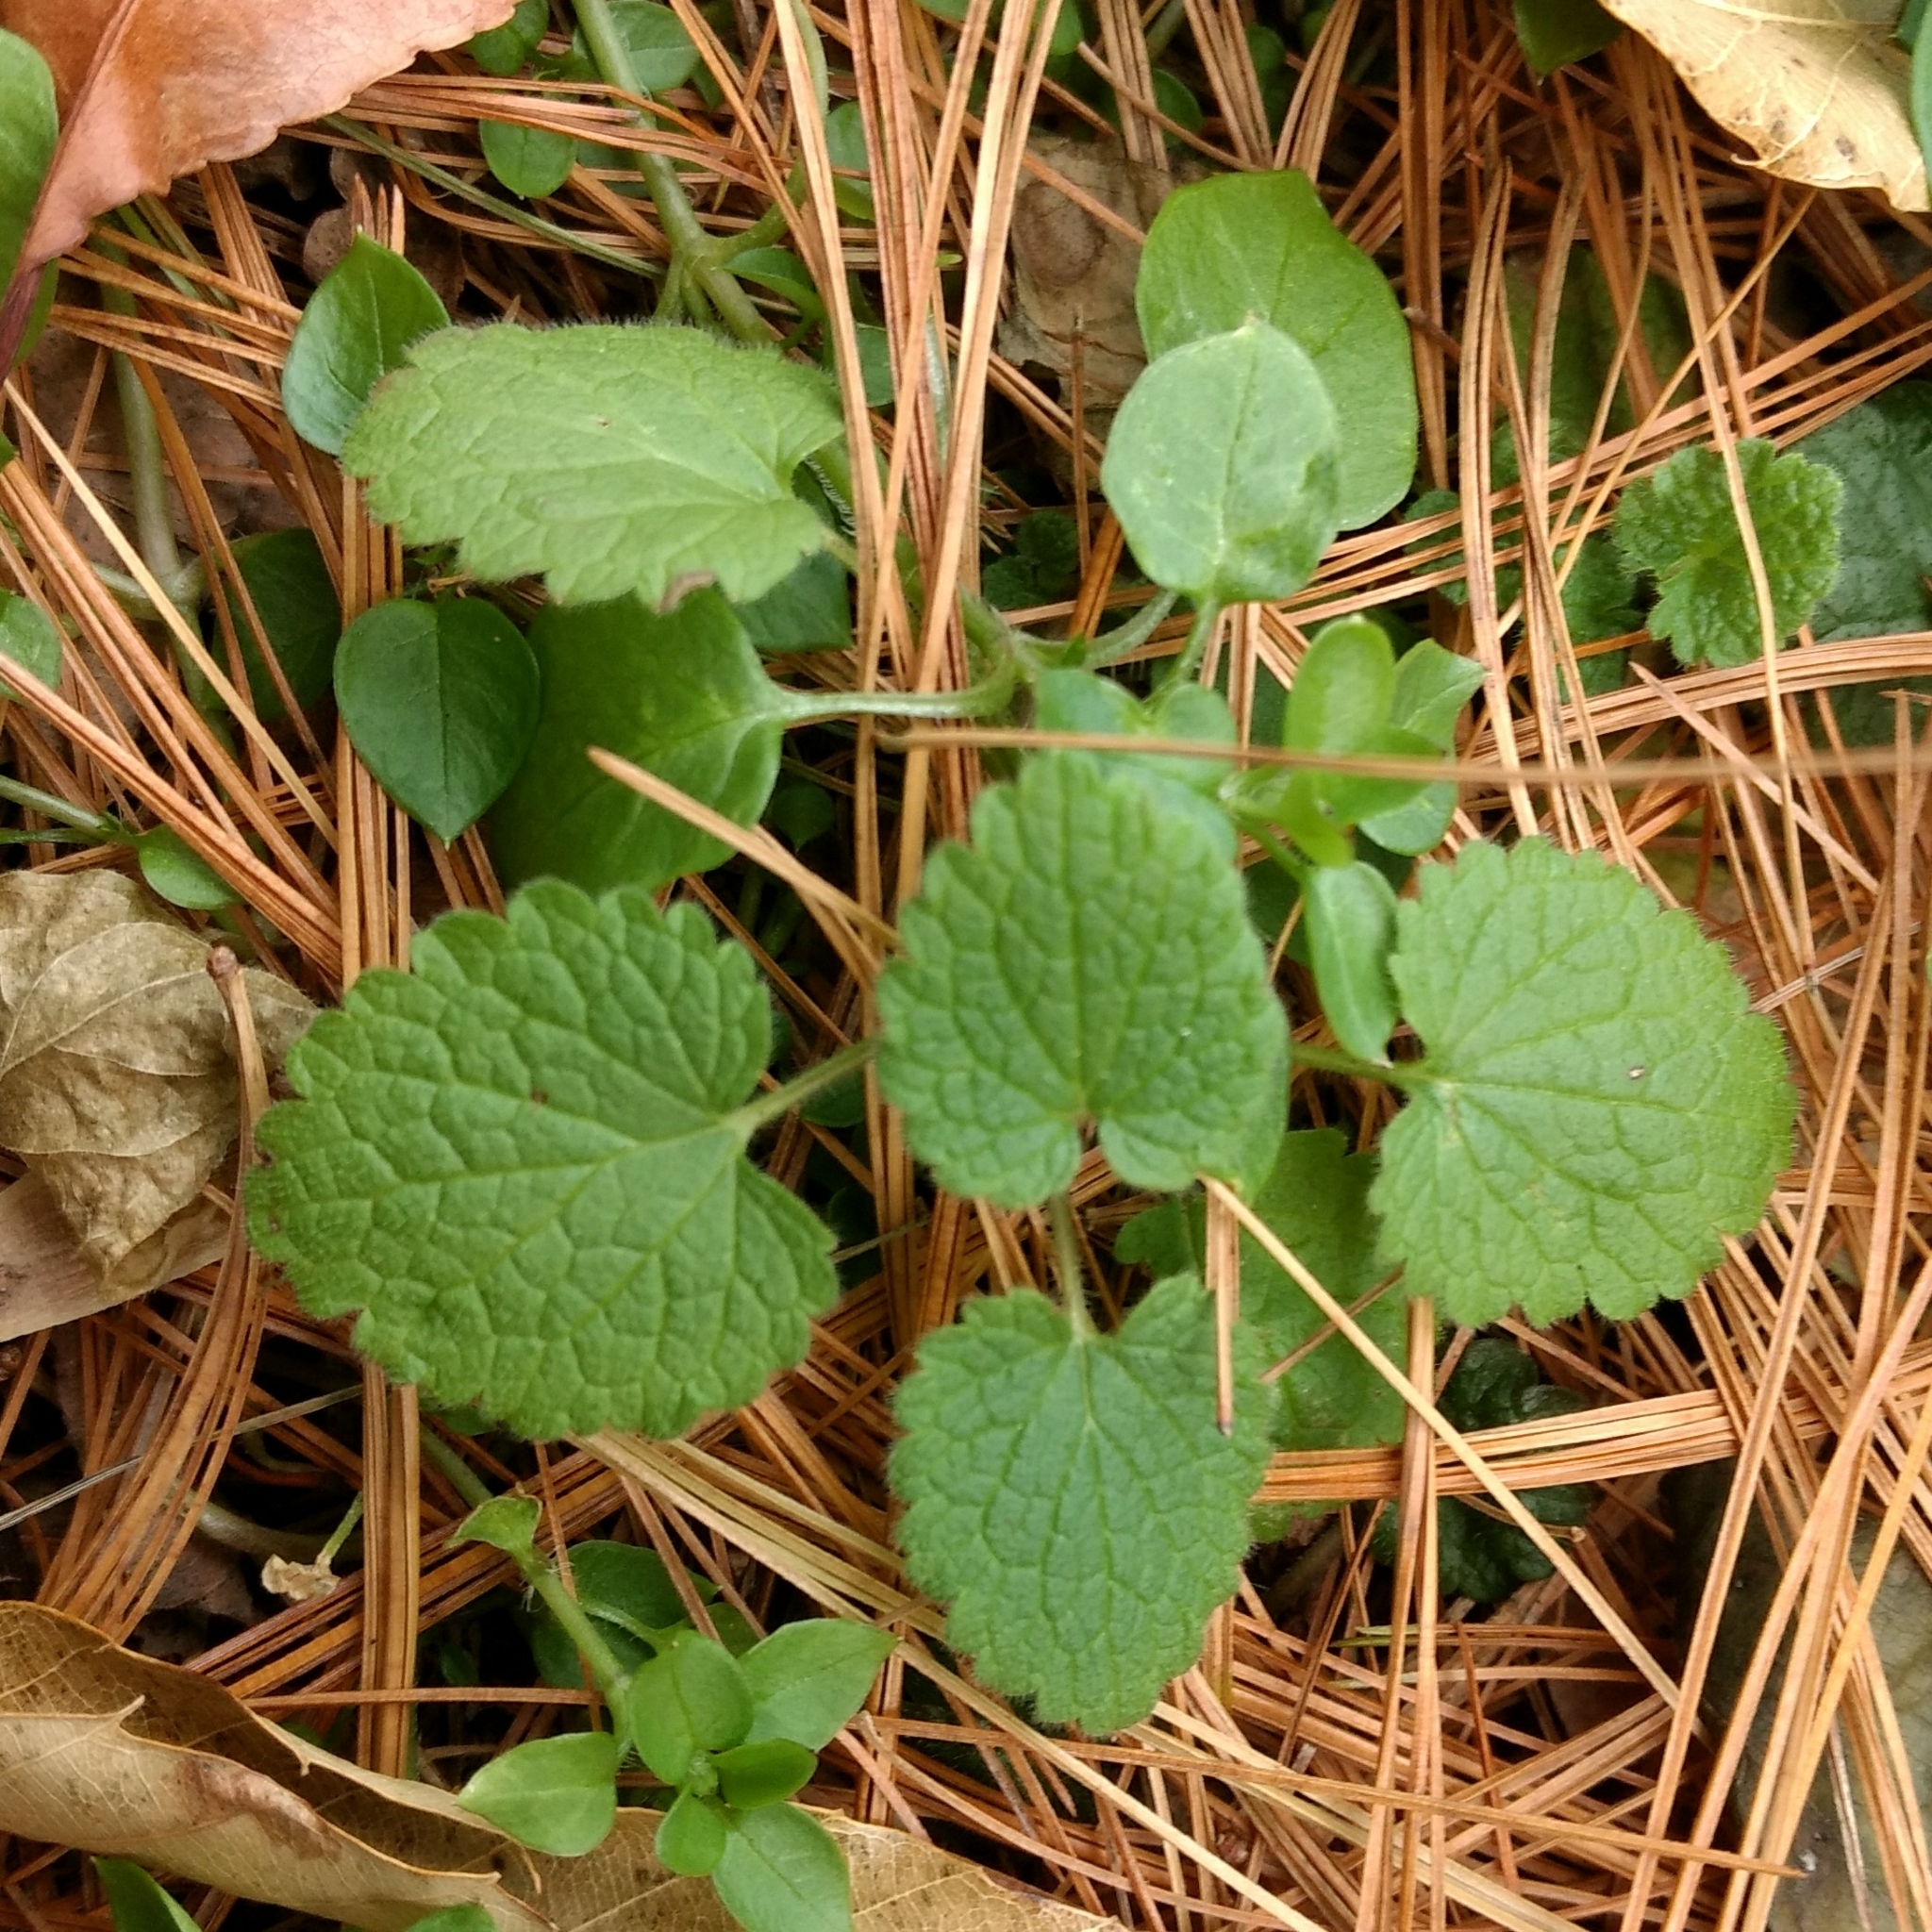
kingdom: Plantae
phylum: Tracheophyta
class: Magnoliopsida
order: Lamiales
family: Lamiaceae
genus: Lamium
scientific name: Lamium purpureum
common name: Red dead-nettle
